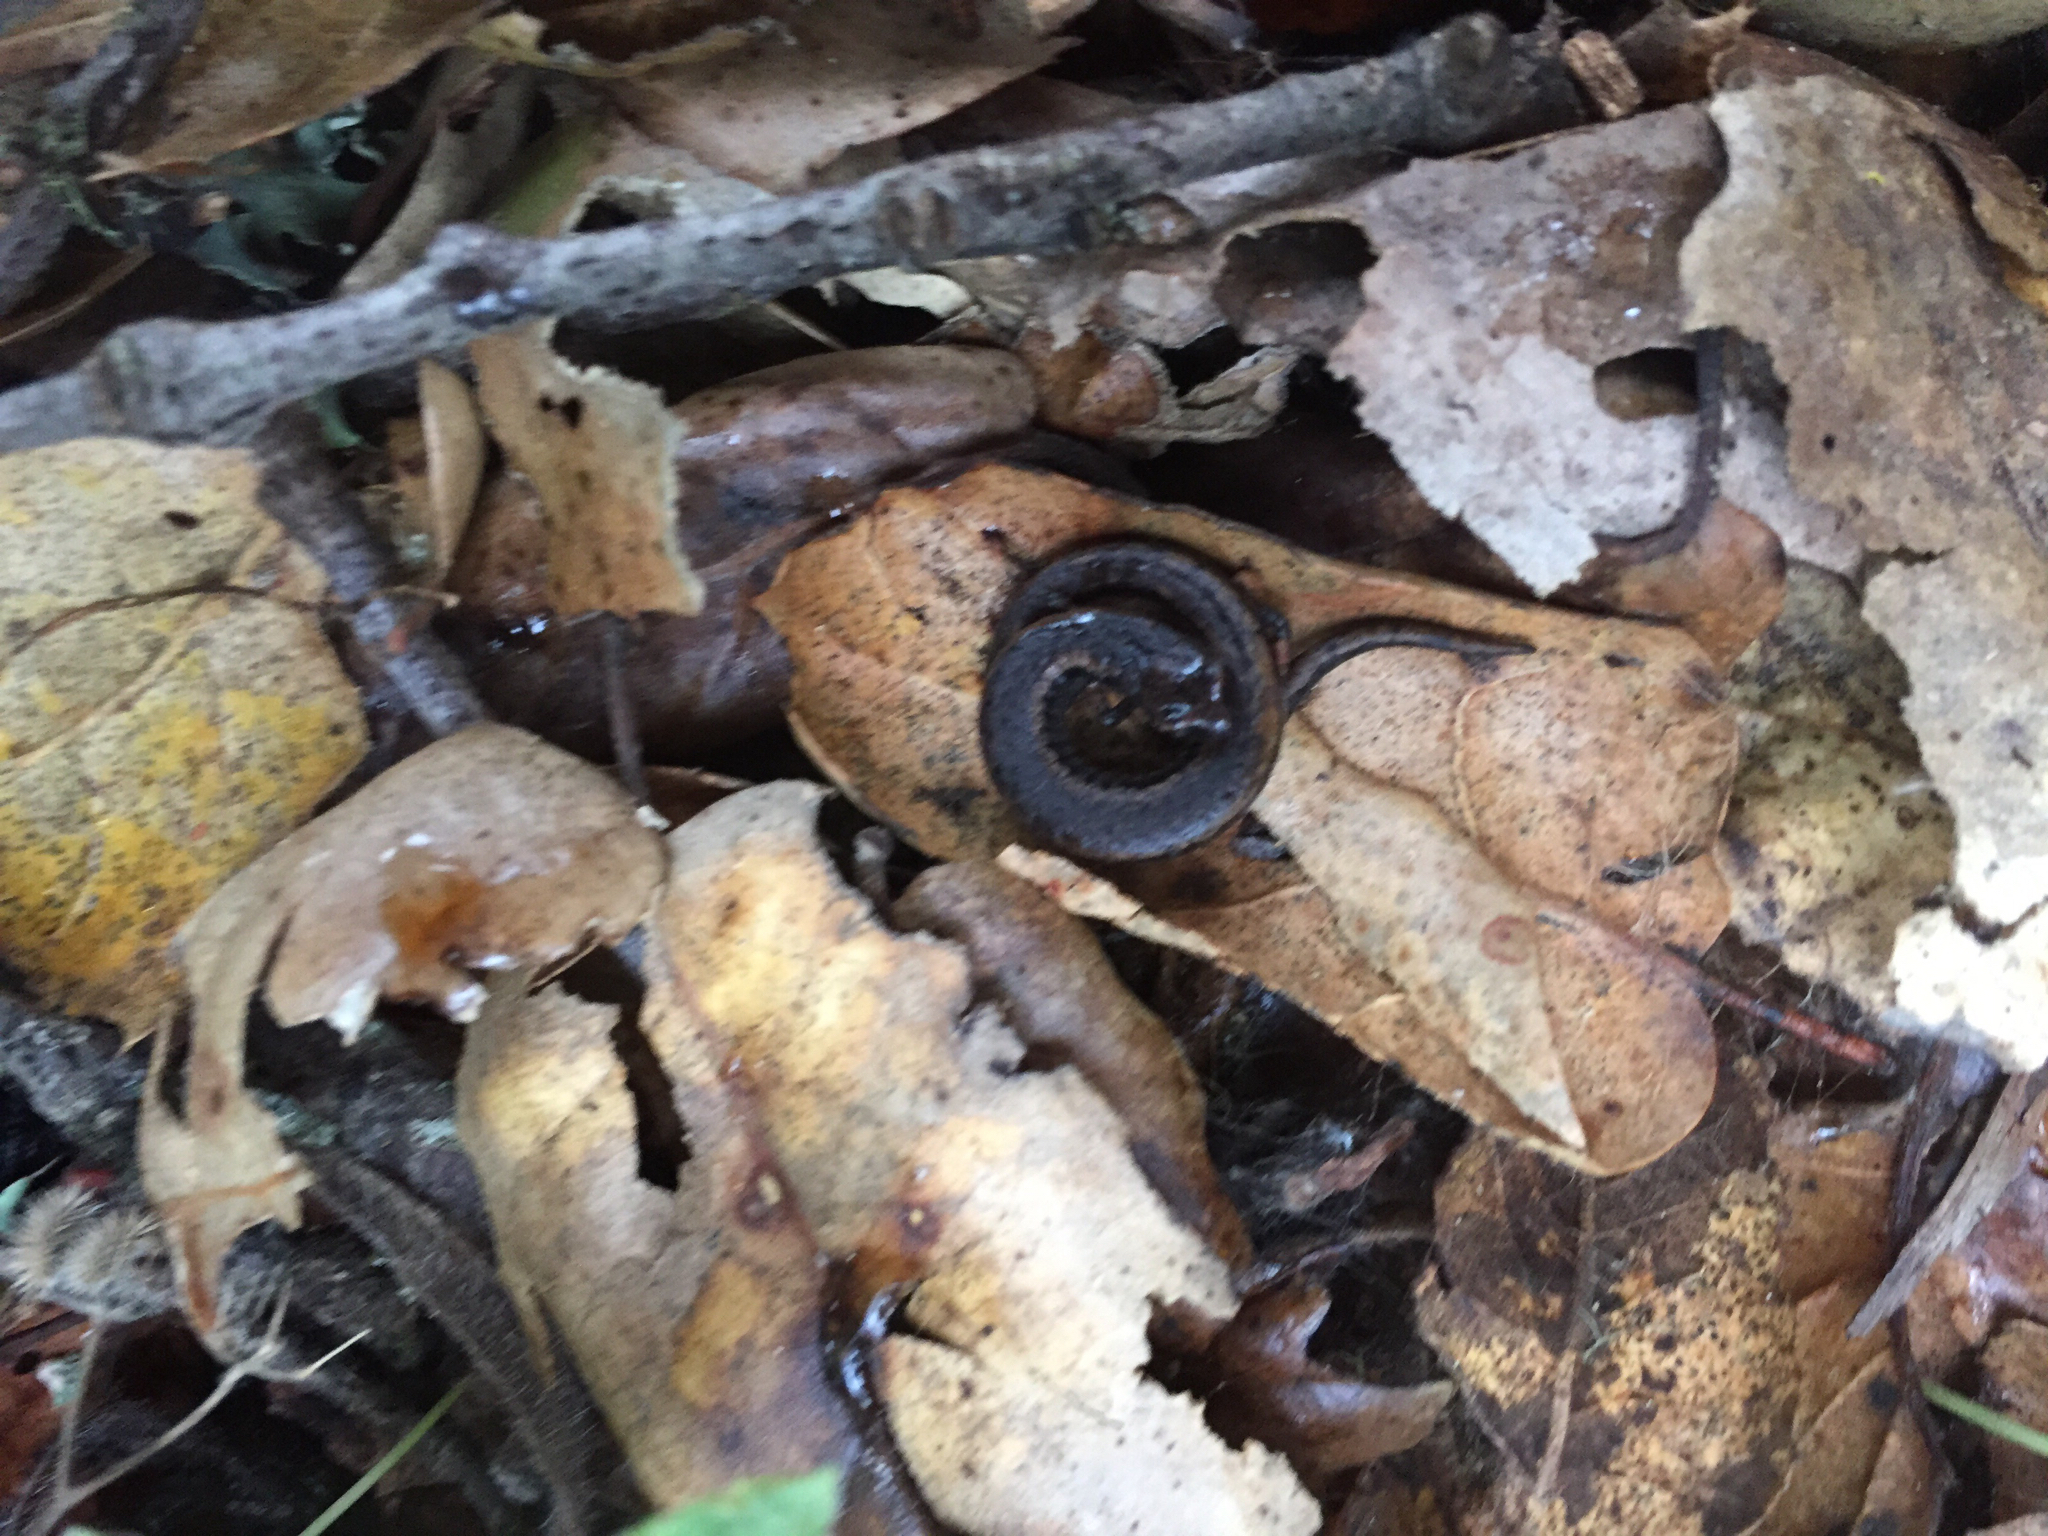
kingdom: Animalia
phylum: Chordata
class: Amphibia
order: Caudata
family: Plethodontidae
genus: Batrachoseps
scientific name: Batrachoseps attenuatus
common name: California slender salamander
